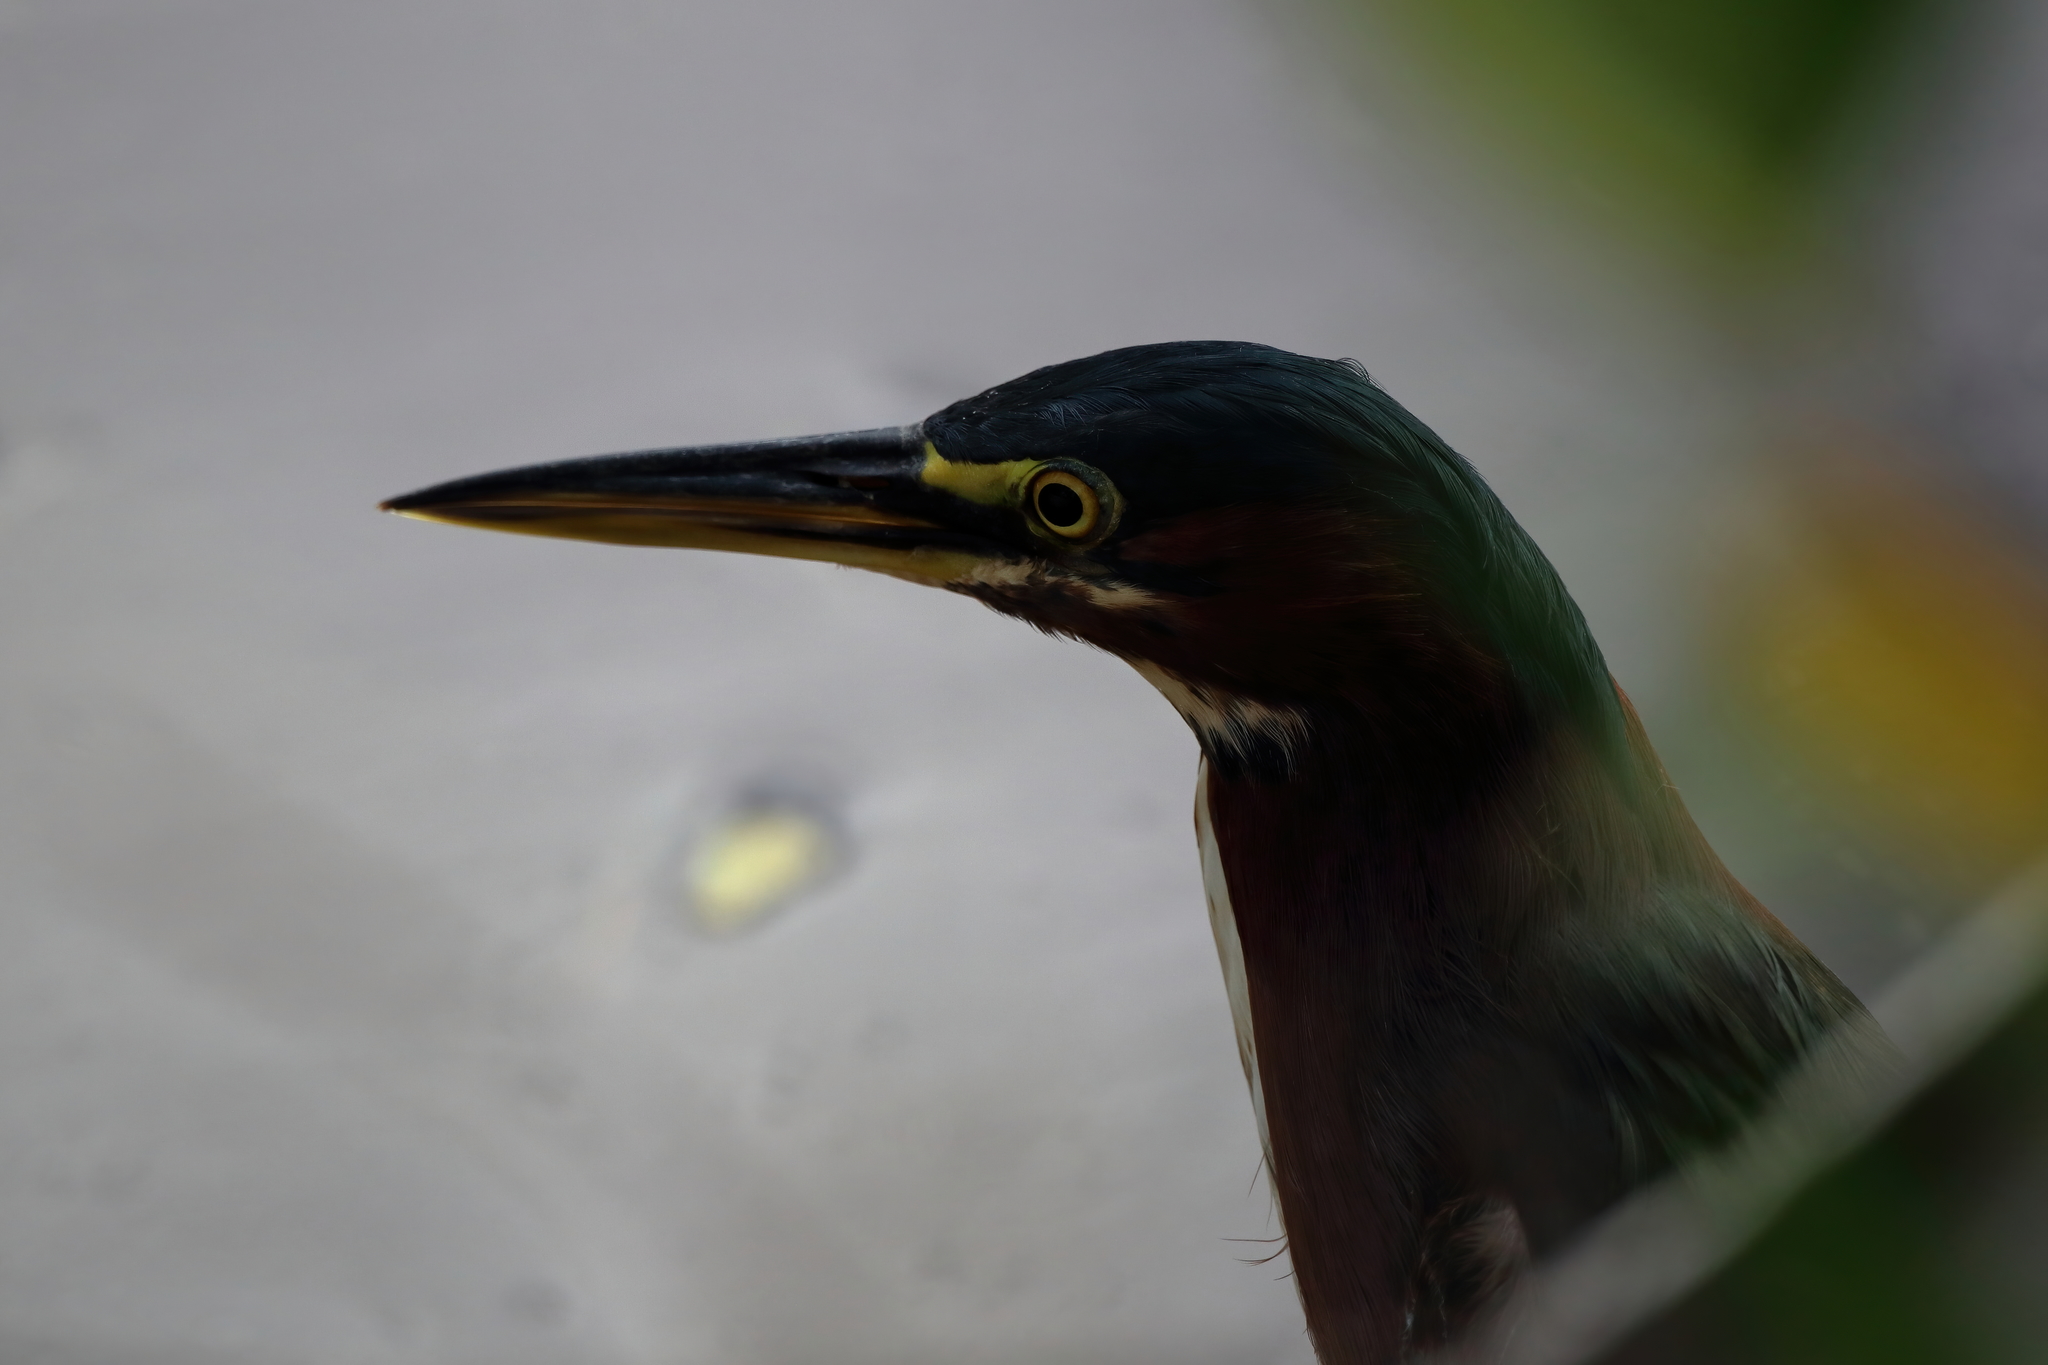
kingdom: Animalia
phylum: Chordata
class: Aves
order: Pelecaniformes
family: Ardeidae
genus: Butorides
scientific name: Butorides virescens
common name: Green heron
